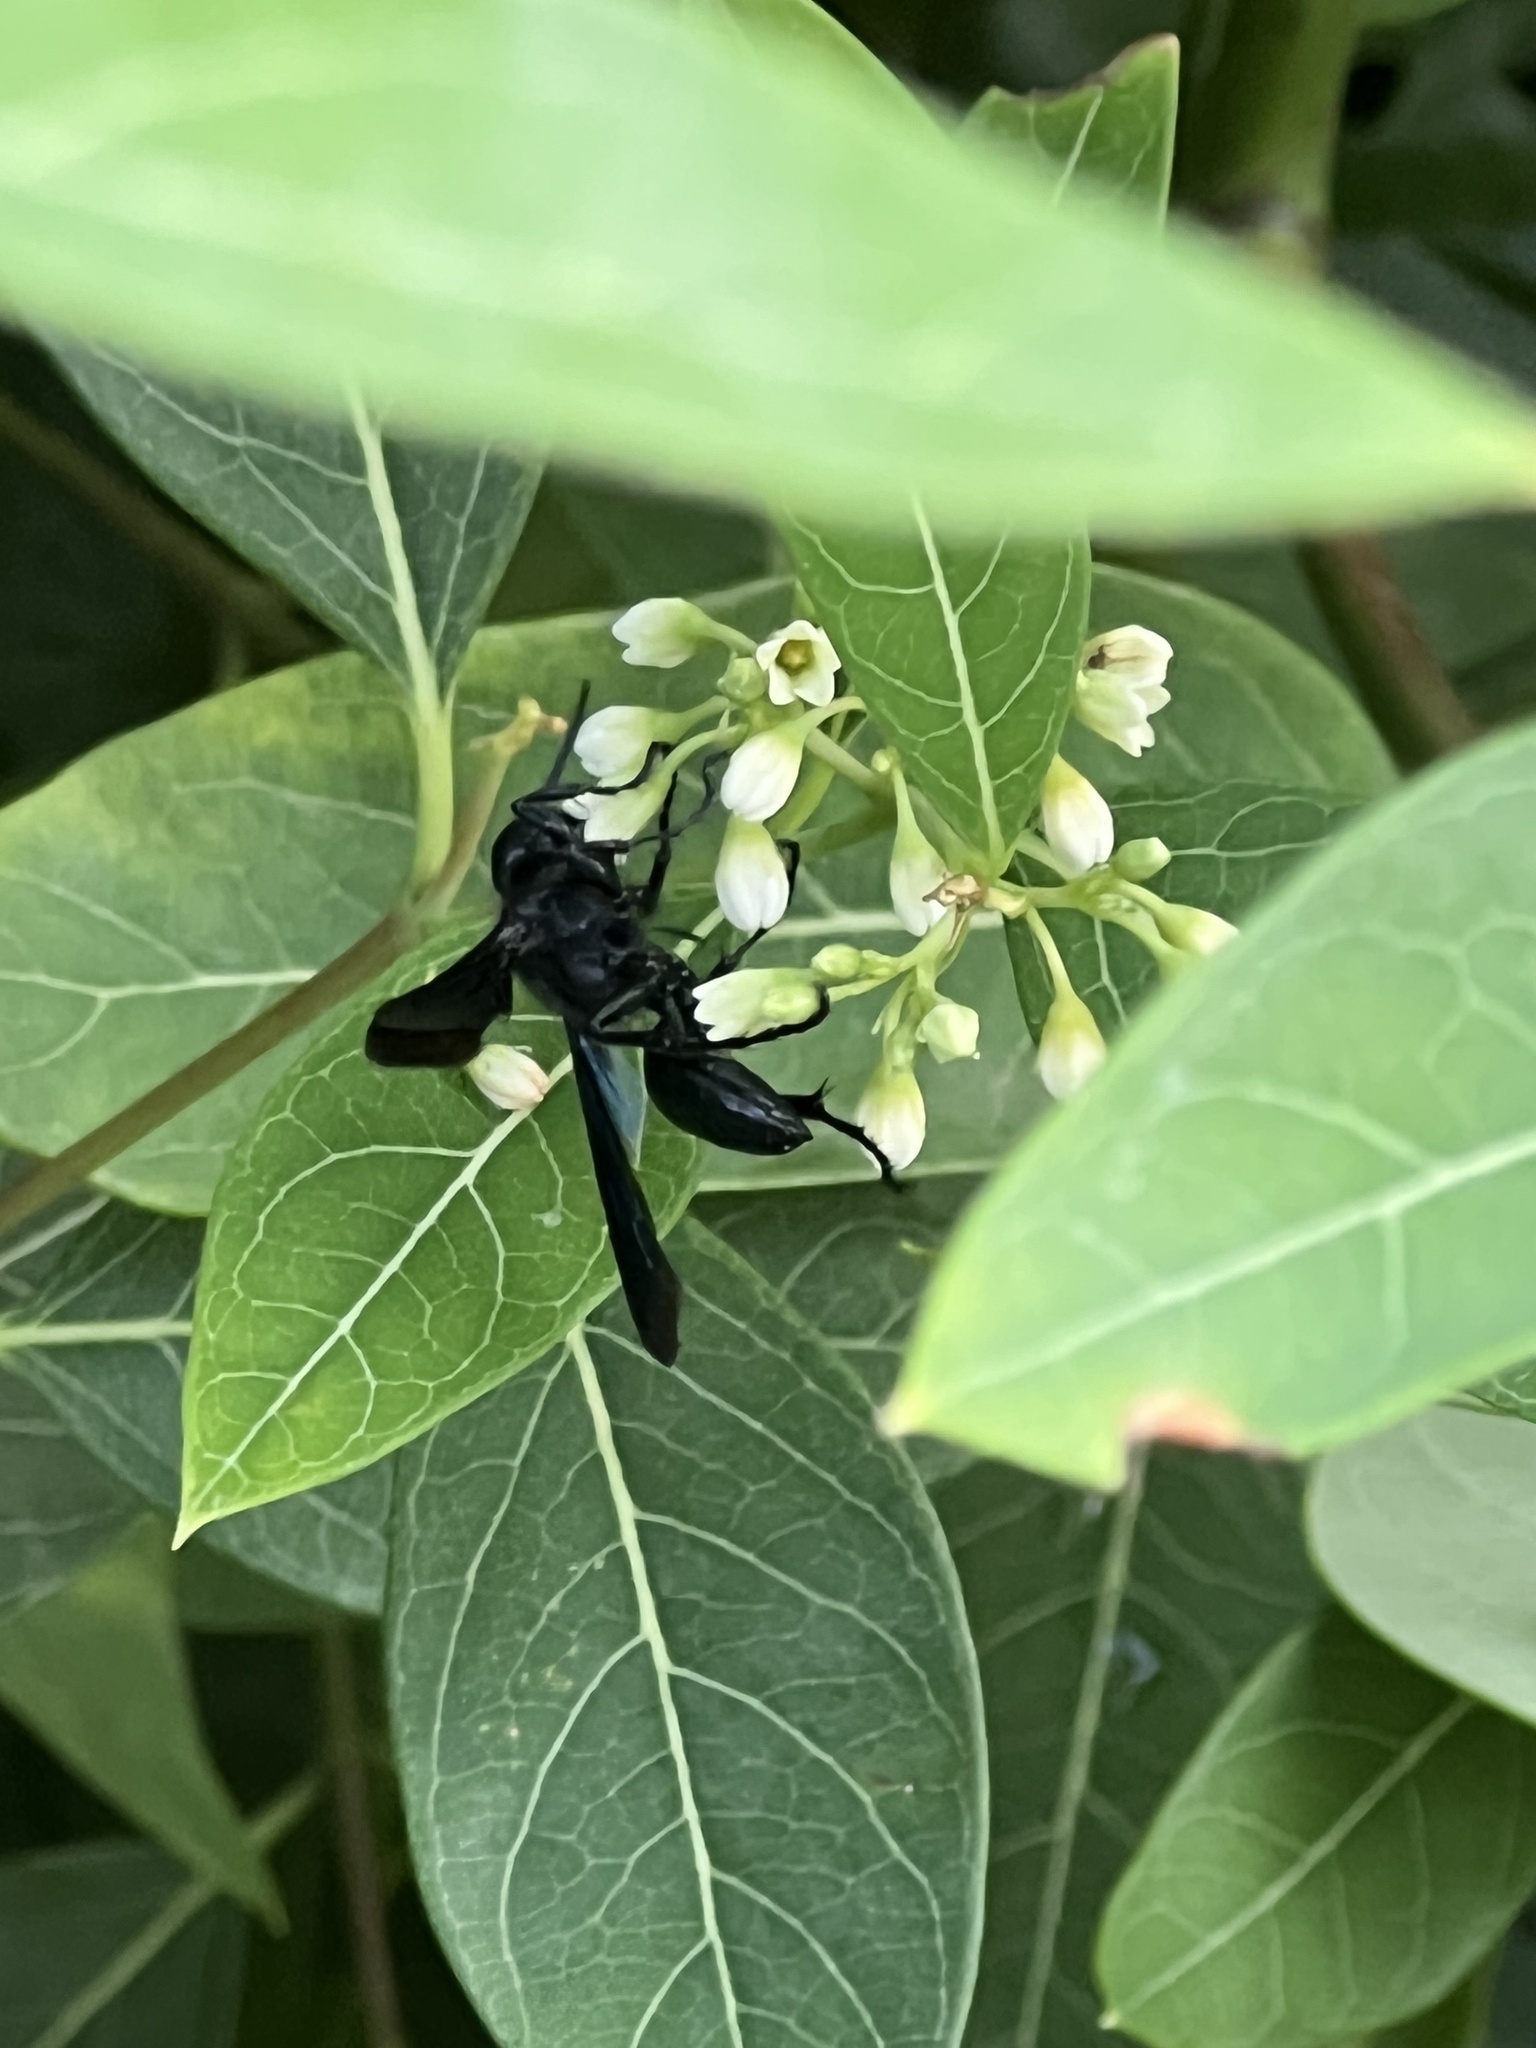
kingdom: Animalia
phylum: Arthropoda
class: Insecta
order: Hymenoptera
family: Sphecidae
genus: Isodontia
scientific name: Isodontia philadelphica
